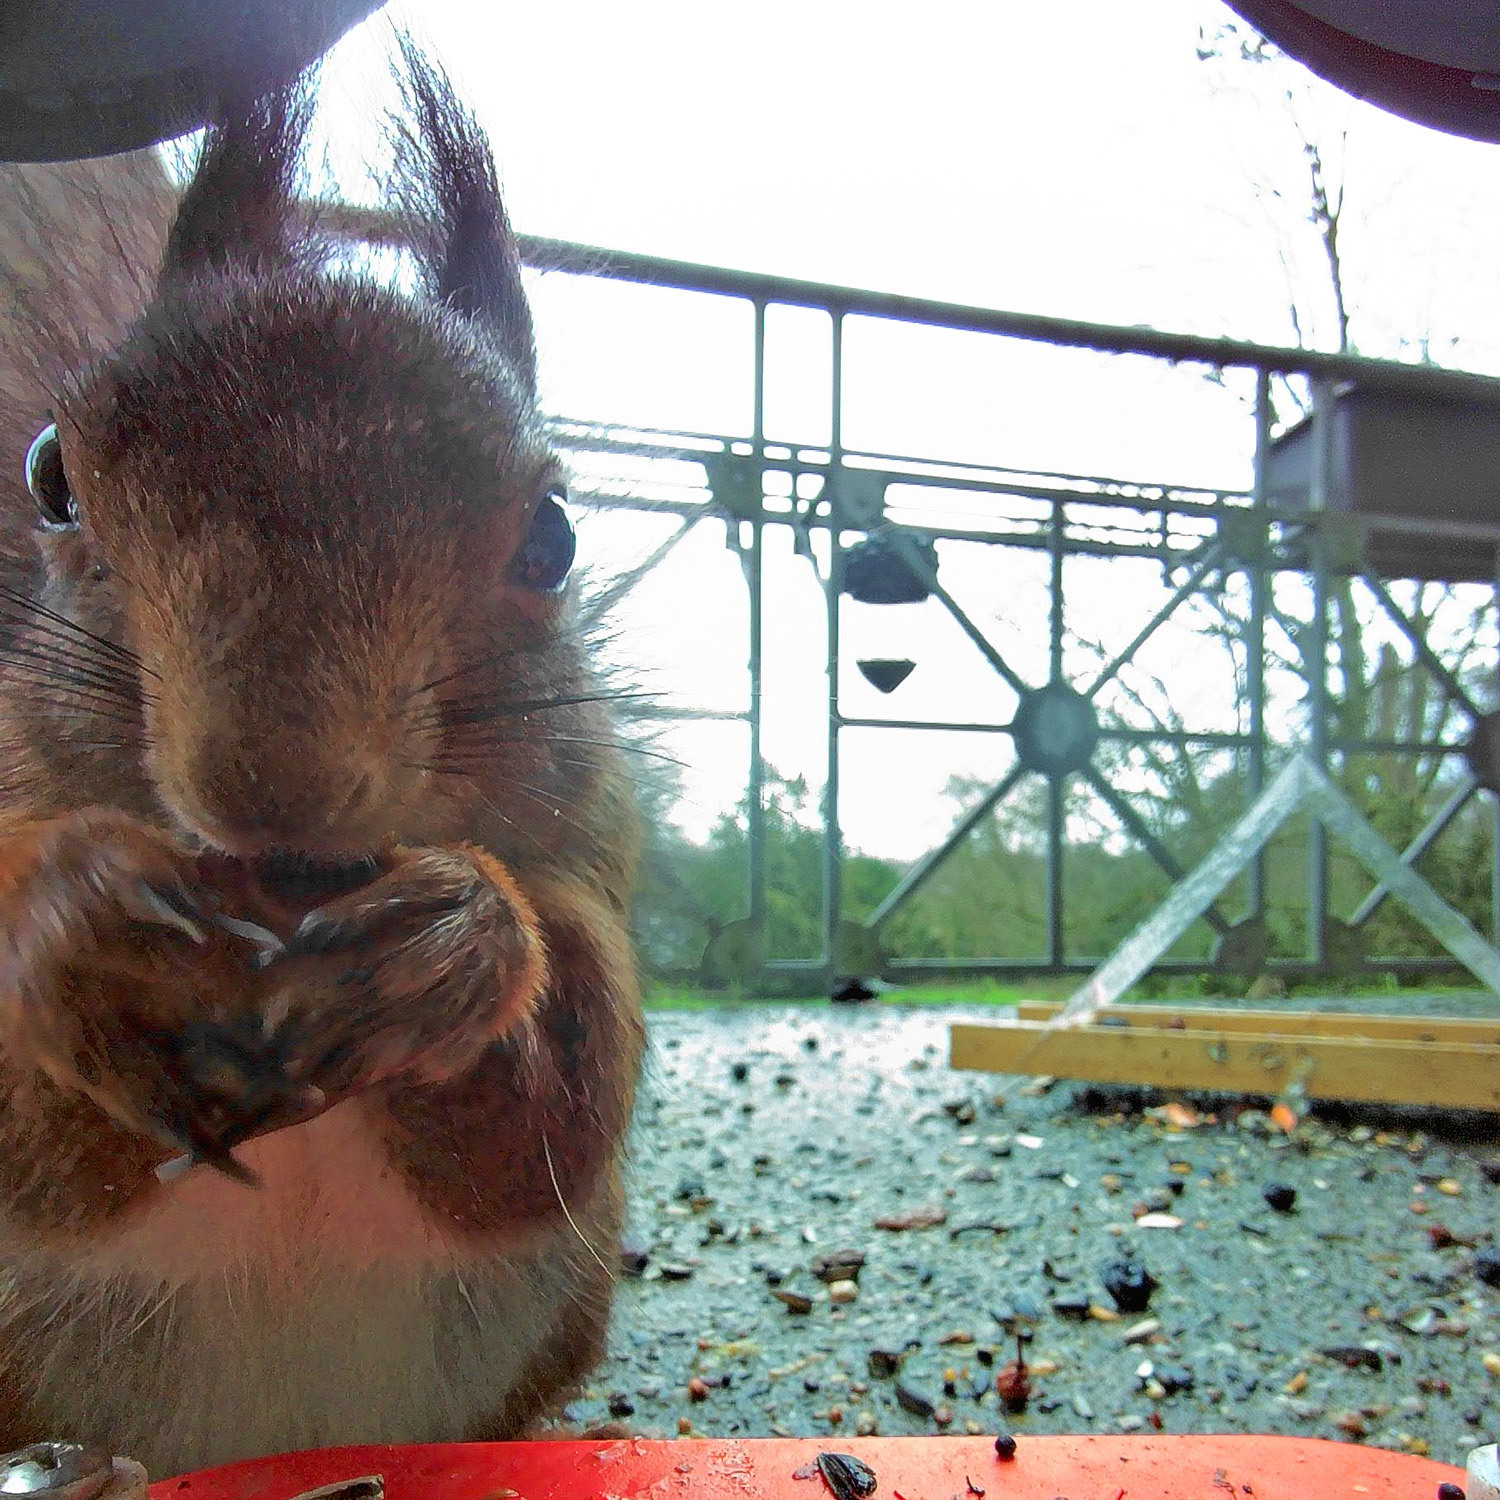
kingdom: Animalia
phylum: Chordata
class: Mammalia
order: Rodentia
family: Sciuridae
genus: Sciurus
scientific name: Sciurus vulgaris
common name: Eurasian red squirrel
